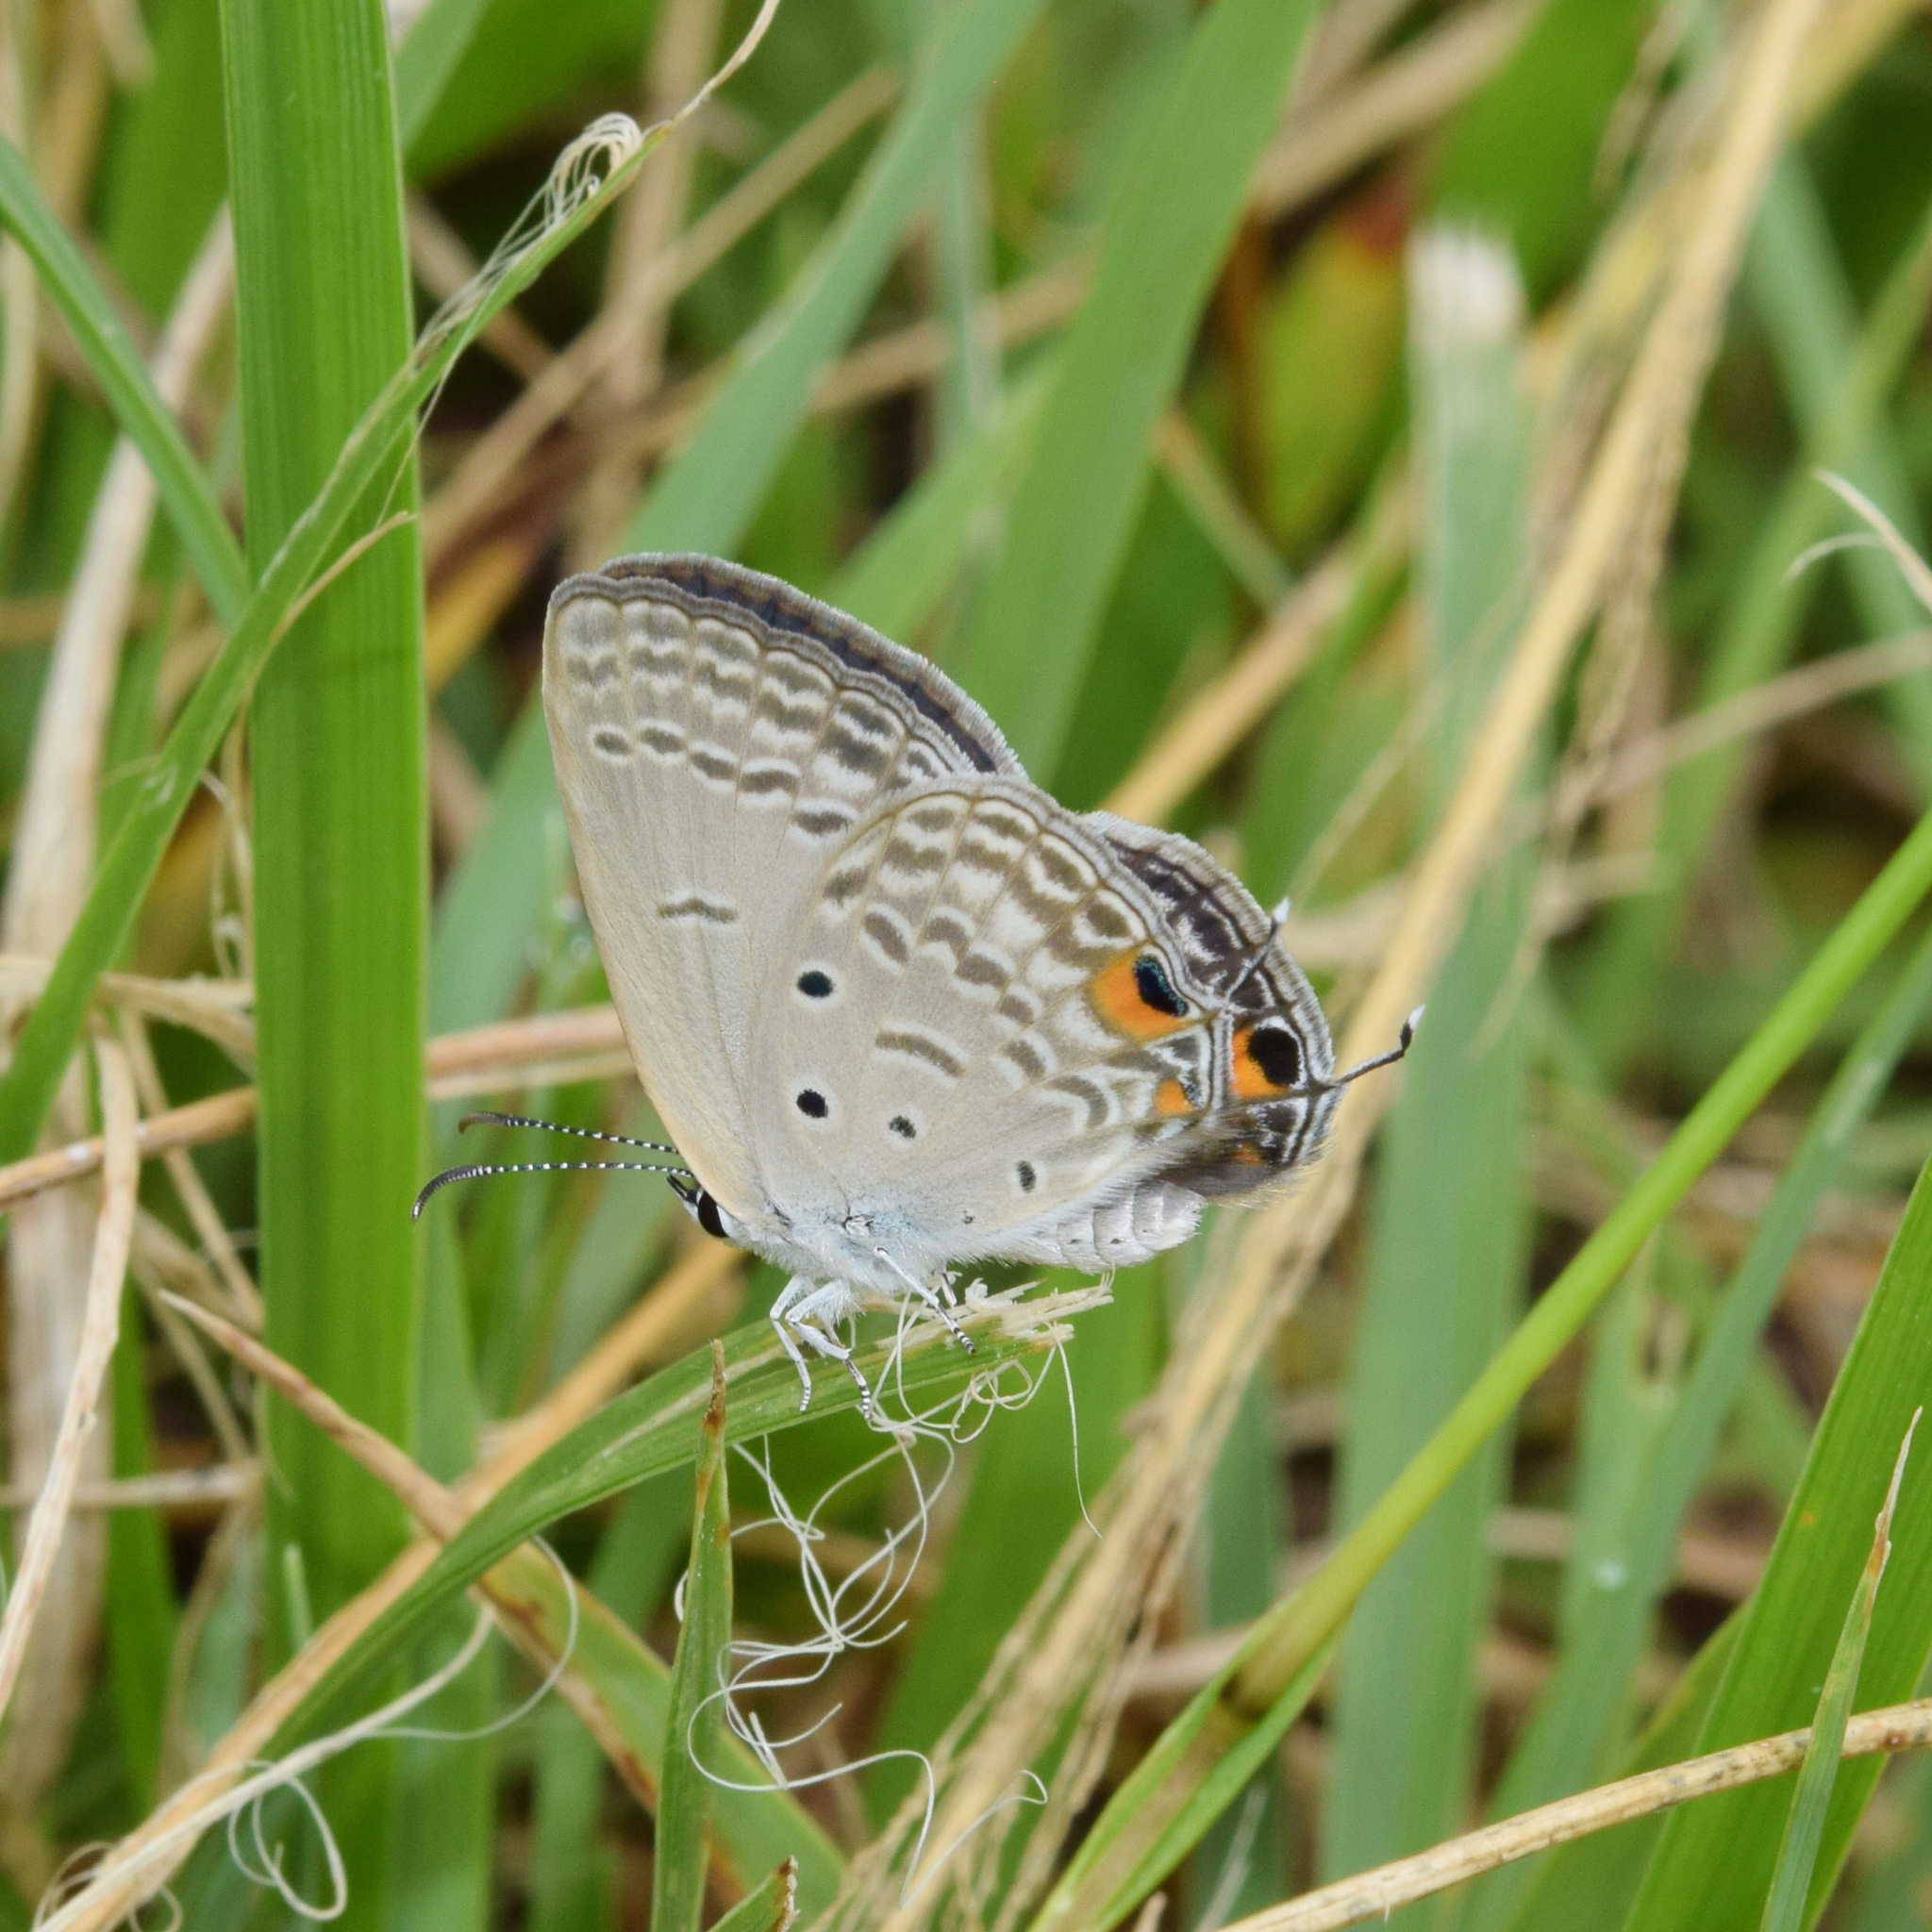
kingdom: Animalia
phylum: Arthropoda
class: Insecta
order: Lepidoptera
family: Lycaenidae
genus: Euchrysops
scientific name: Euchrysops barkeri
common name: Barker's smoky blue
